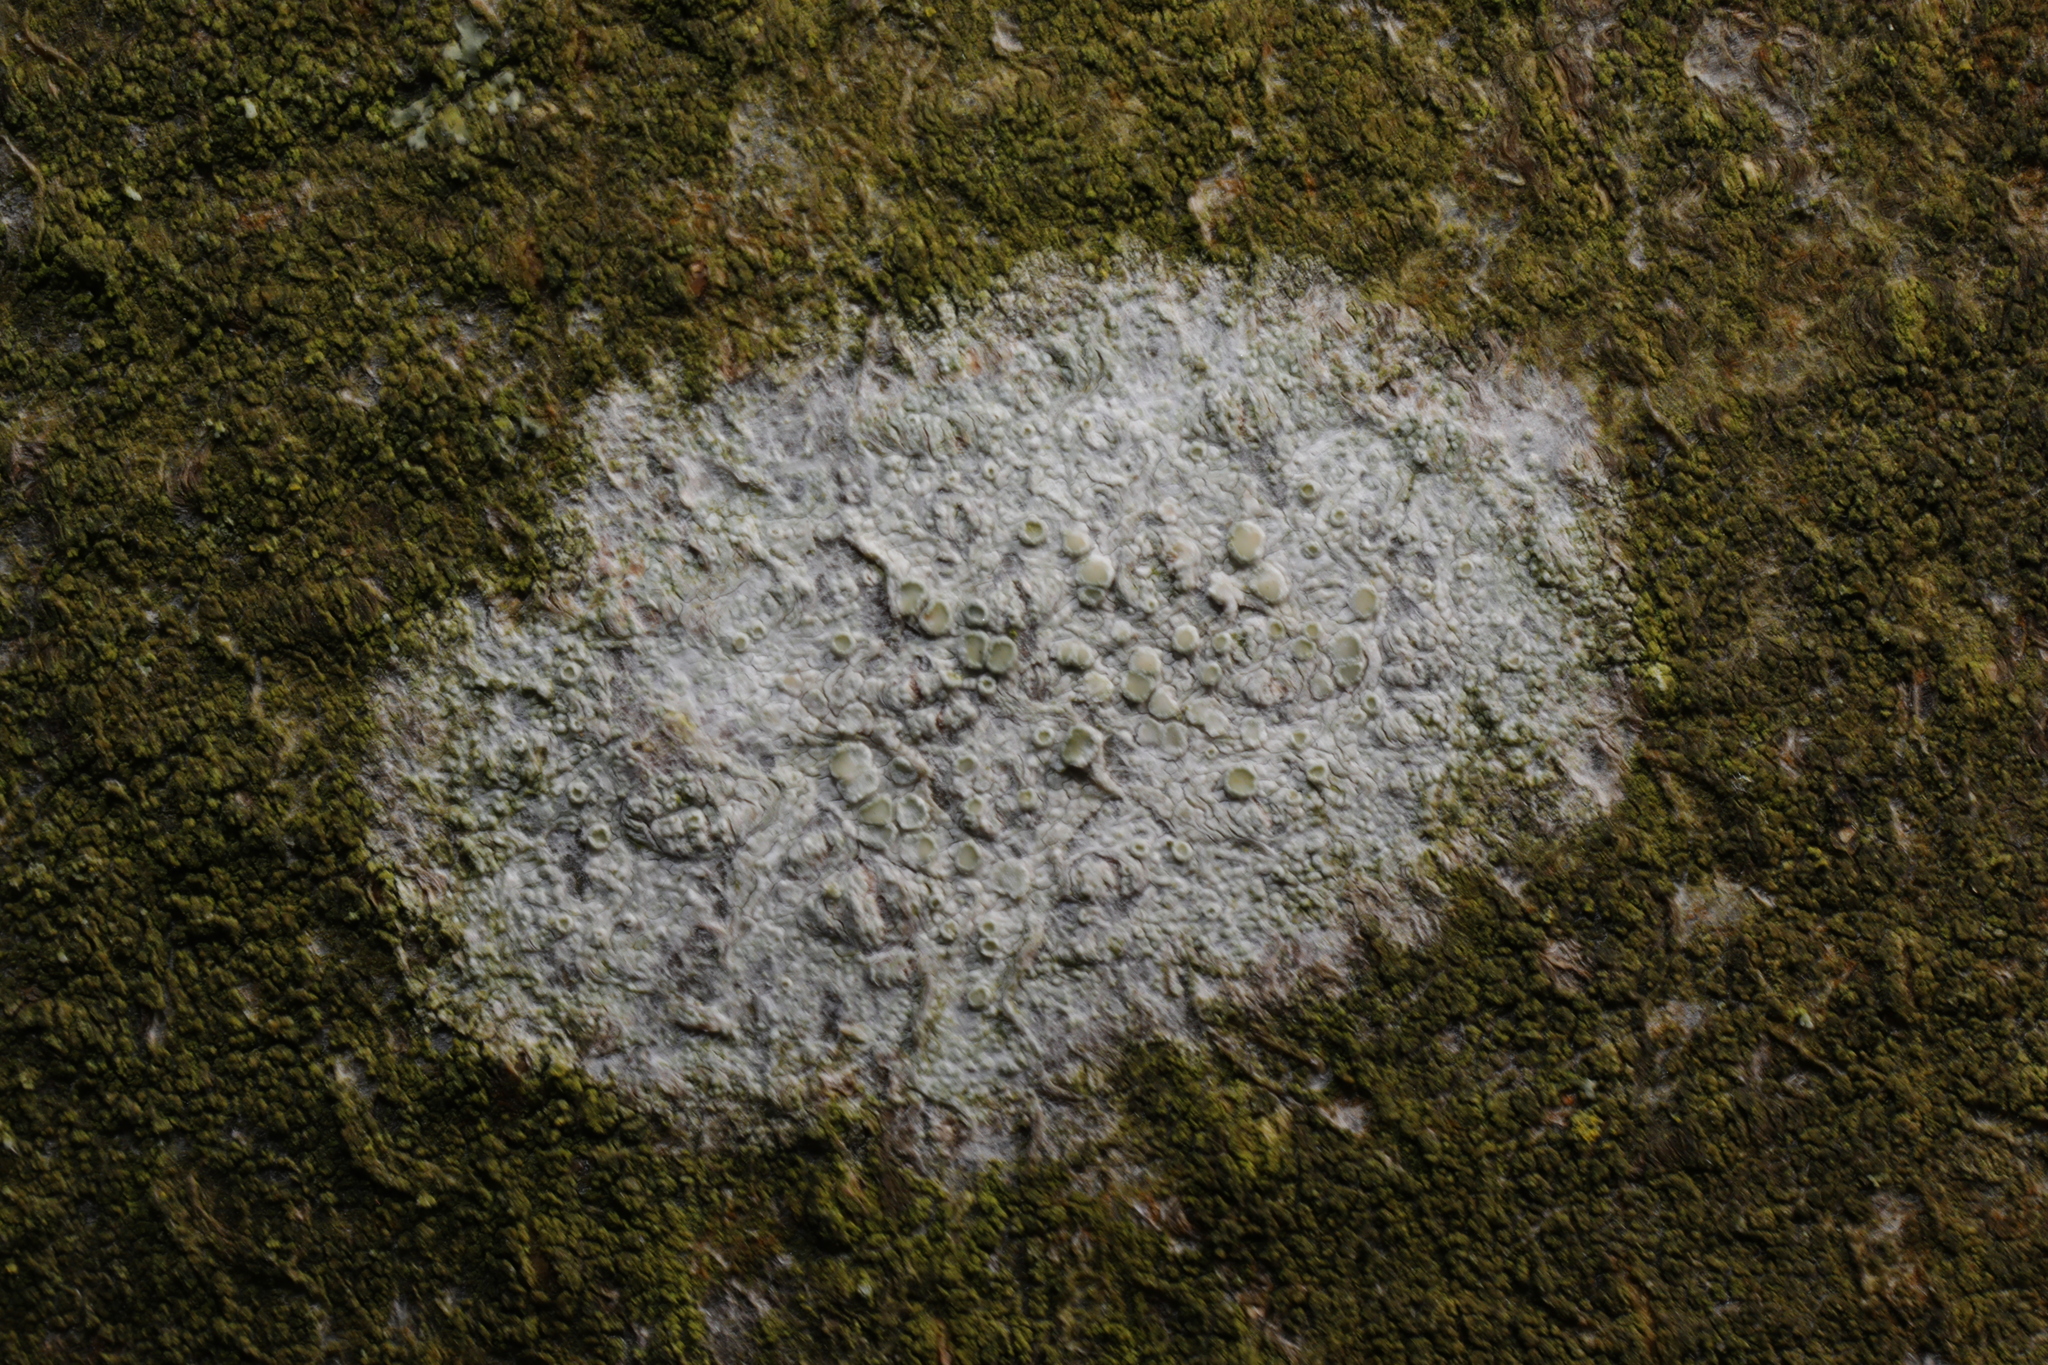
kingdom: Fungi
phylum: Ascomycota
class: Lecanoromycetes
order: Lecanorales
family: Lecanoraceae
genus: Lecanora
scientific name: Lecanora
